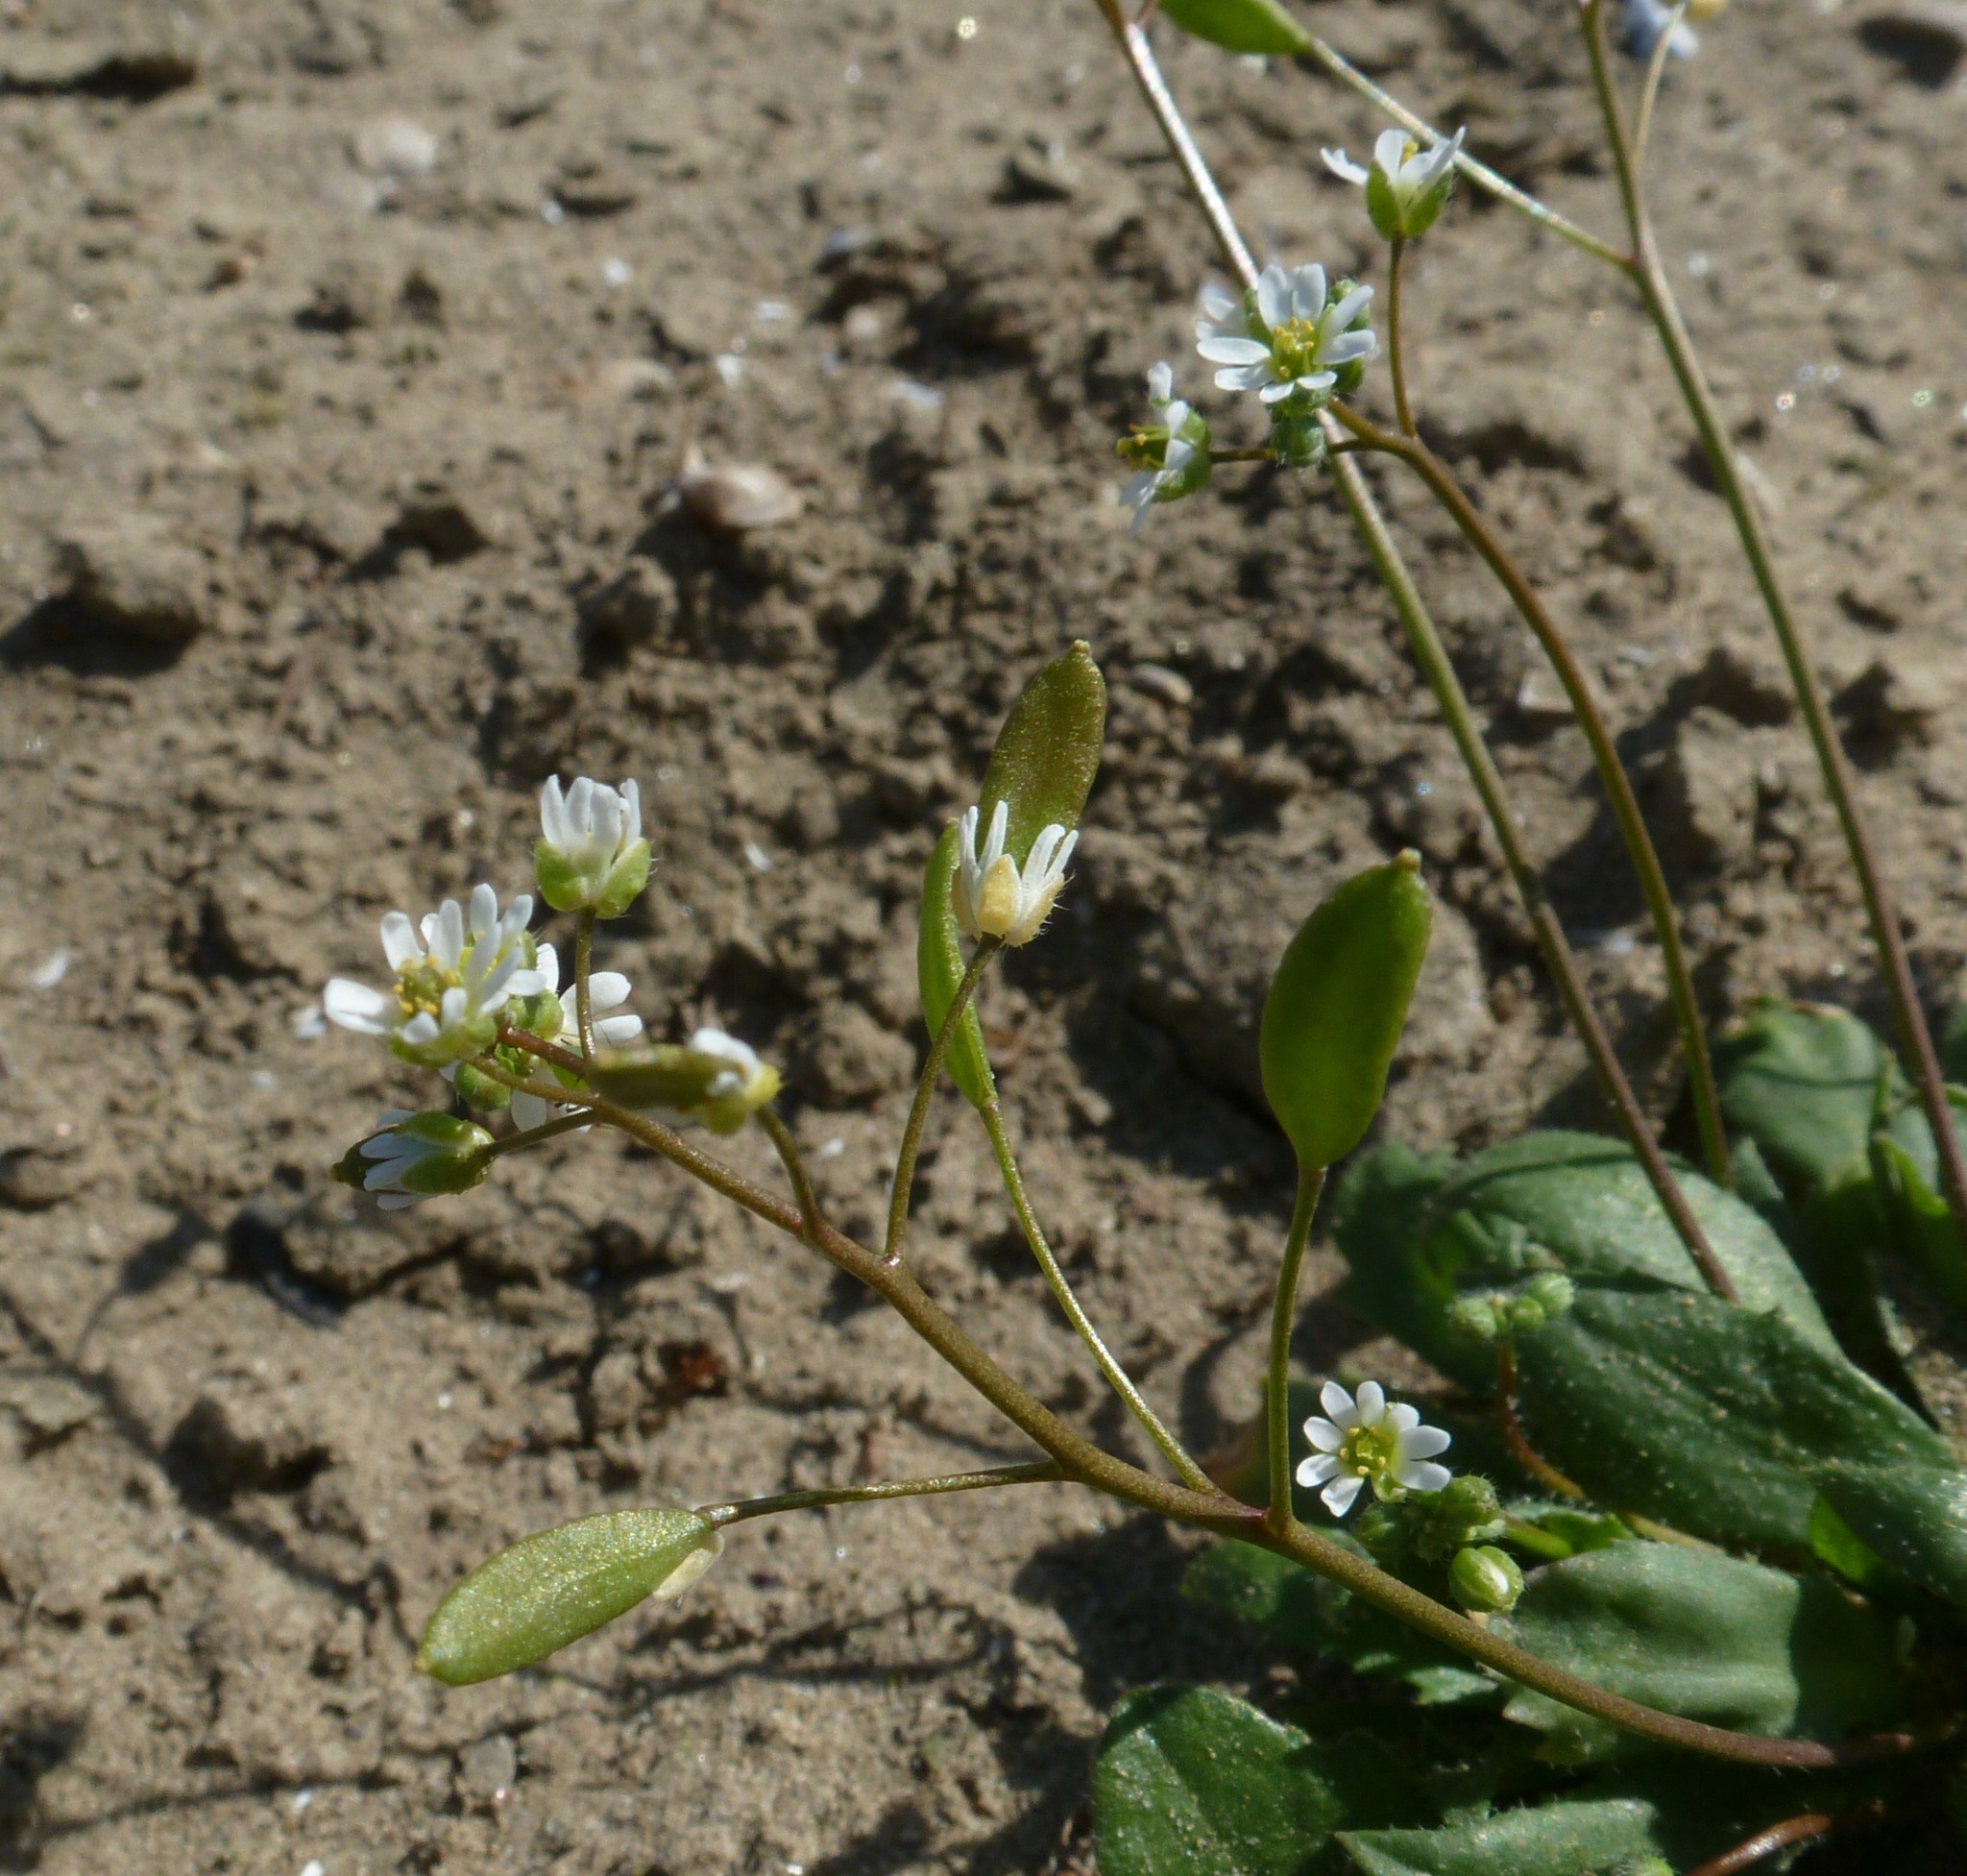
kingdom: Plantae
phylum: Tracheophyta
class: Magnoliopsida
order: Brassicales
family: Brassicaceae
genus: Draba
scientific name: Draba verna
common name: Spring draba
